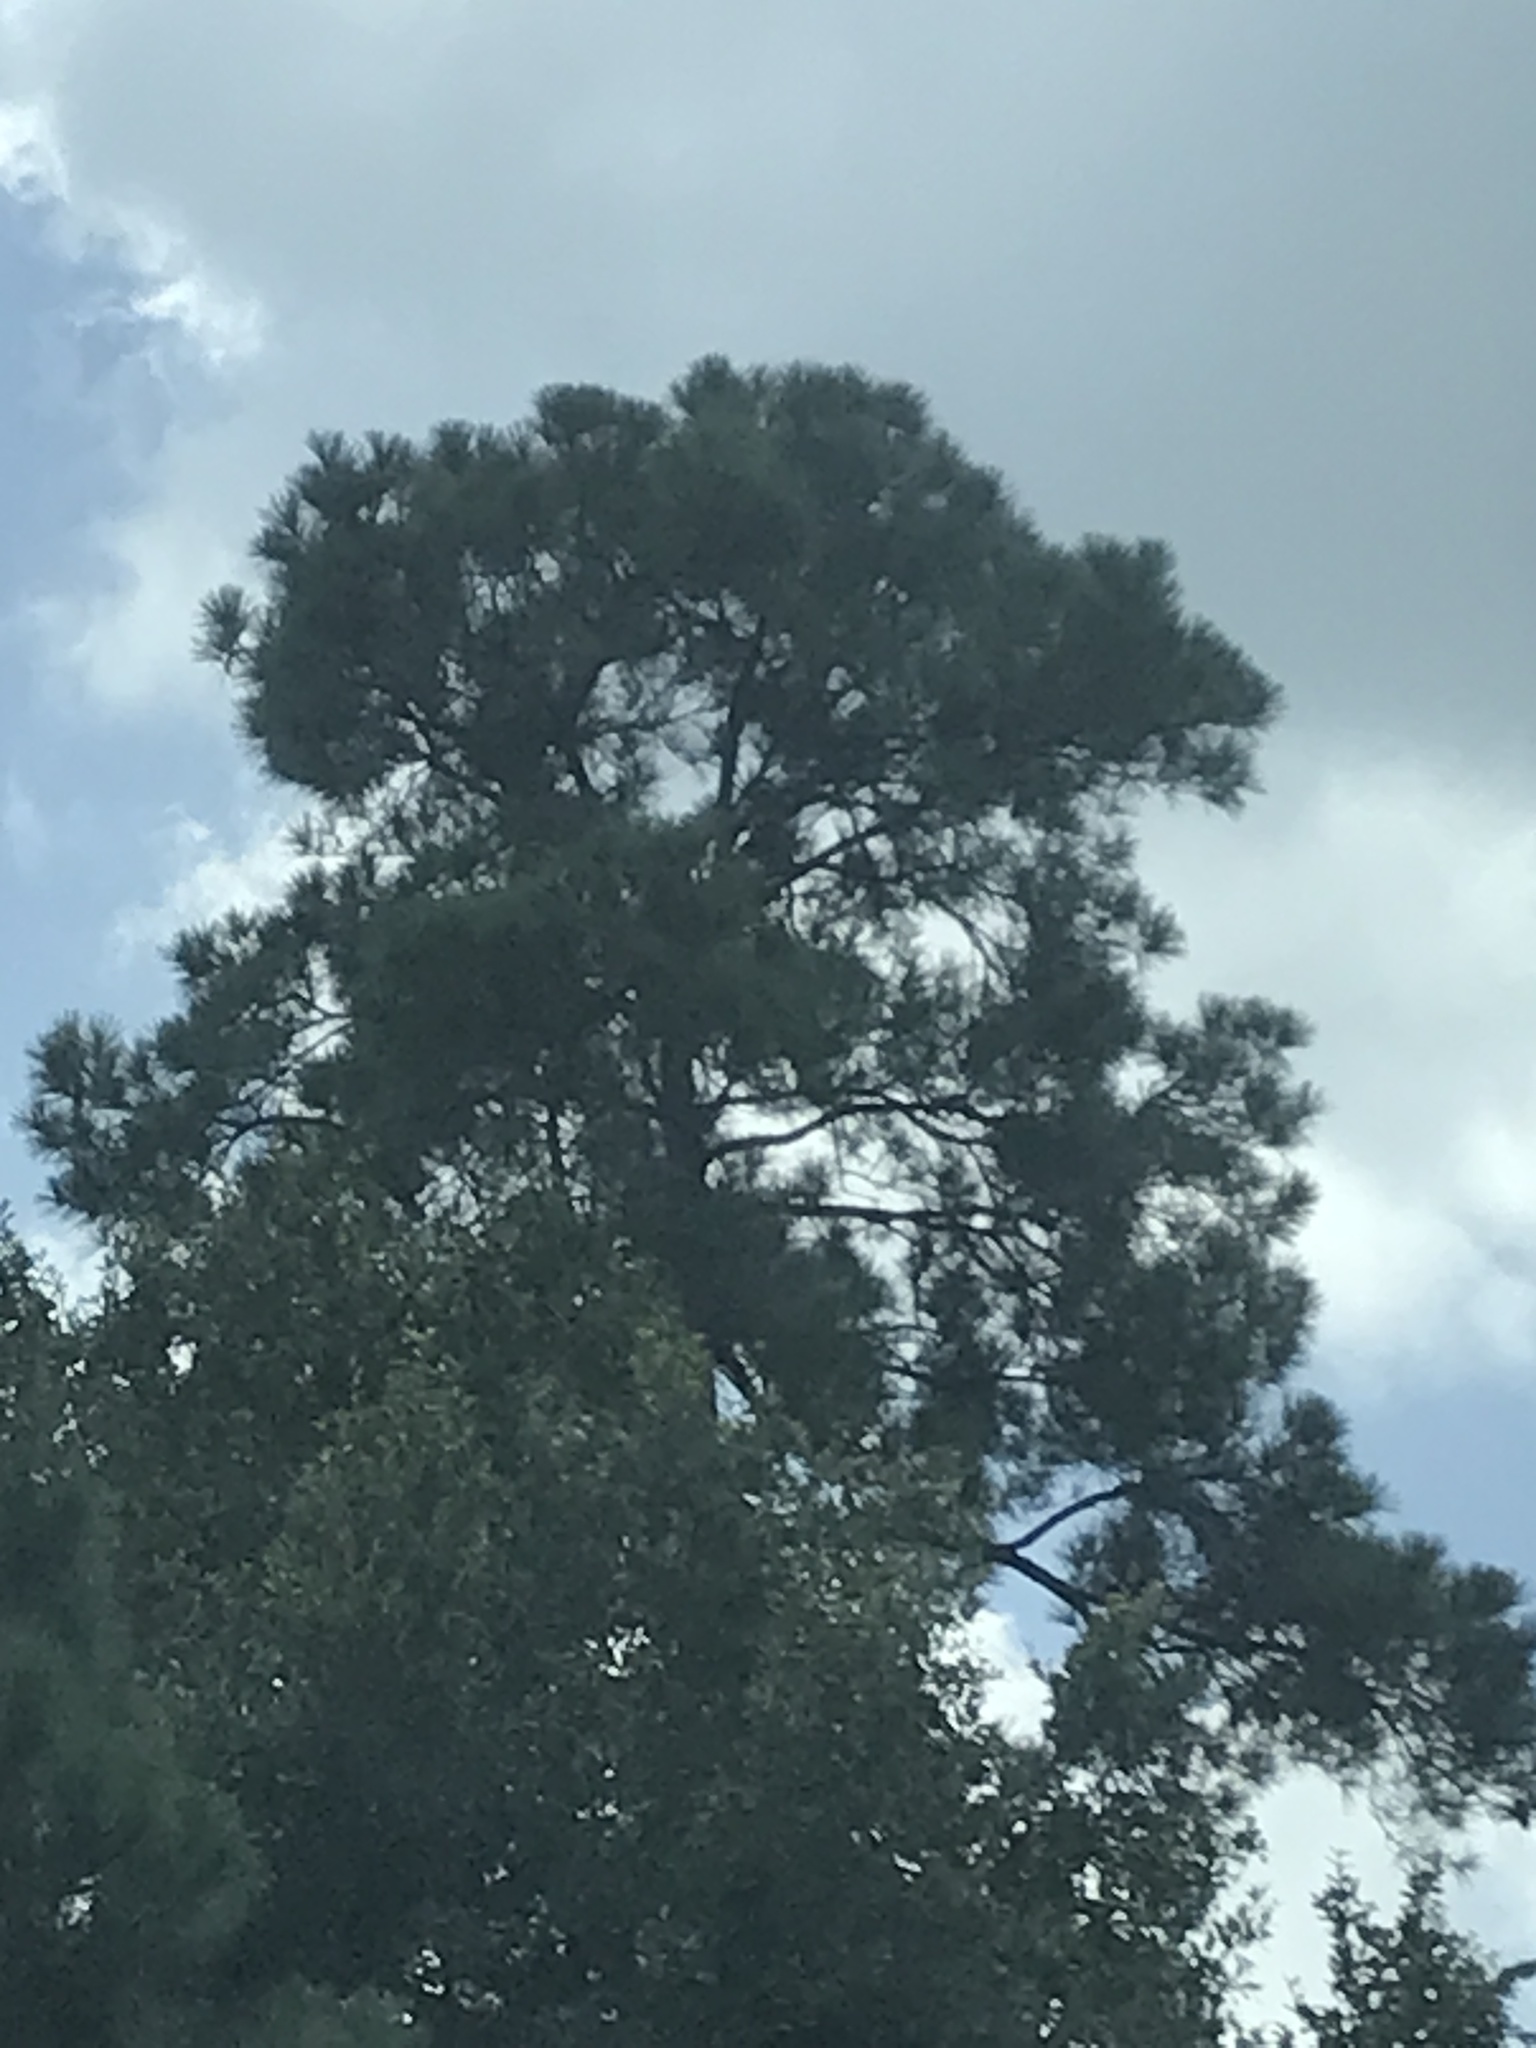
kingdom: Plantae
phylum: Tracheophyta
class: Pinopsida
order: Pinales
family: Pinaceae
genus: Pinus
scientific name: Pinus taeda
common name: Loblolly pine
